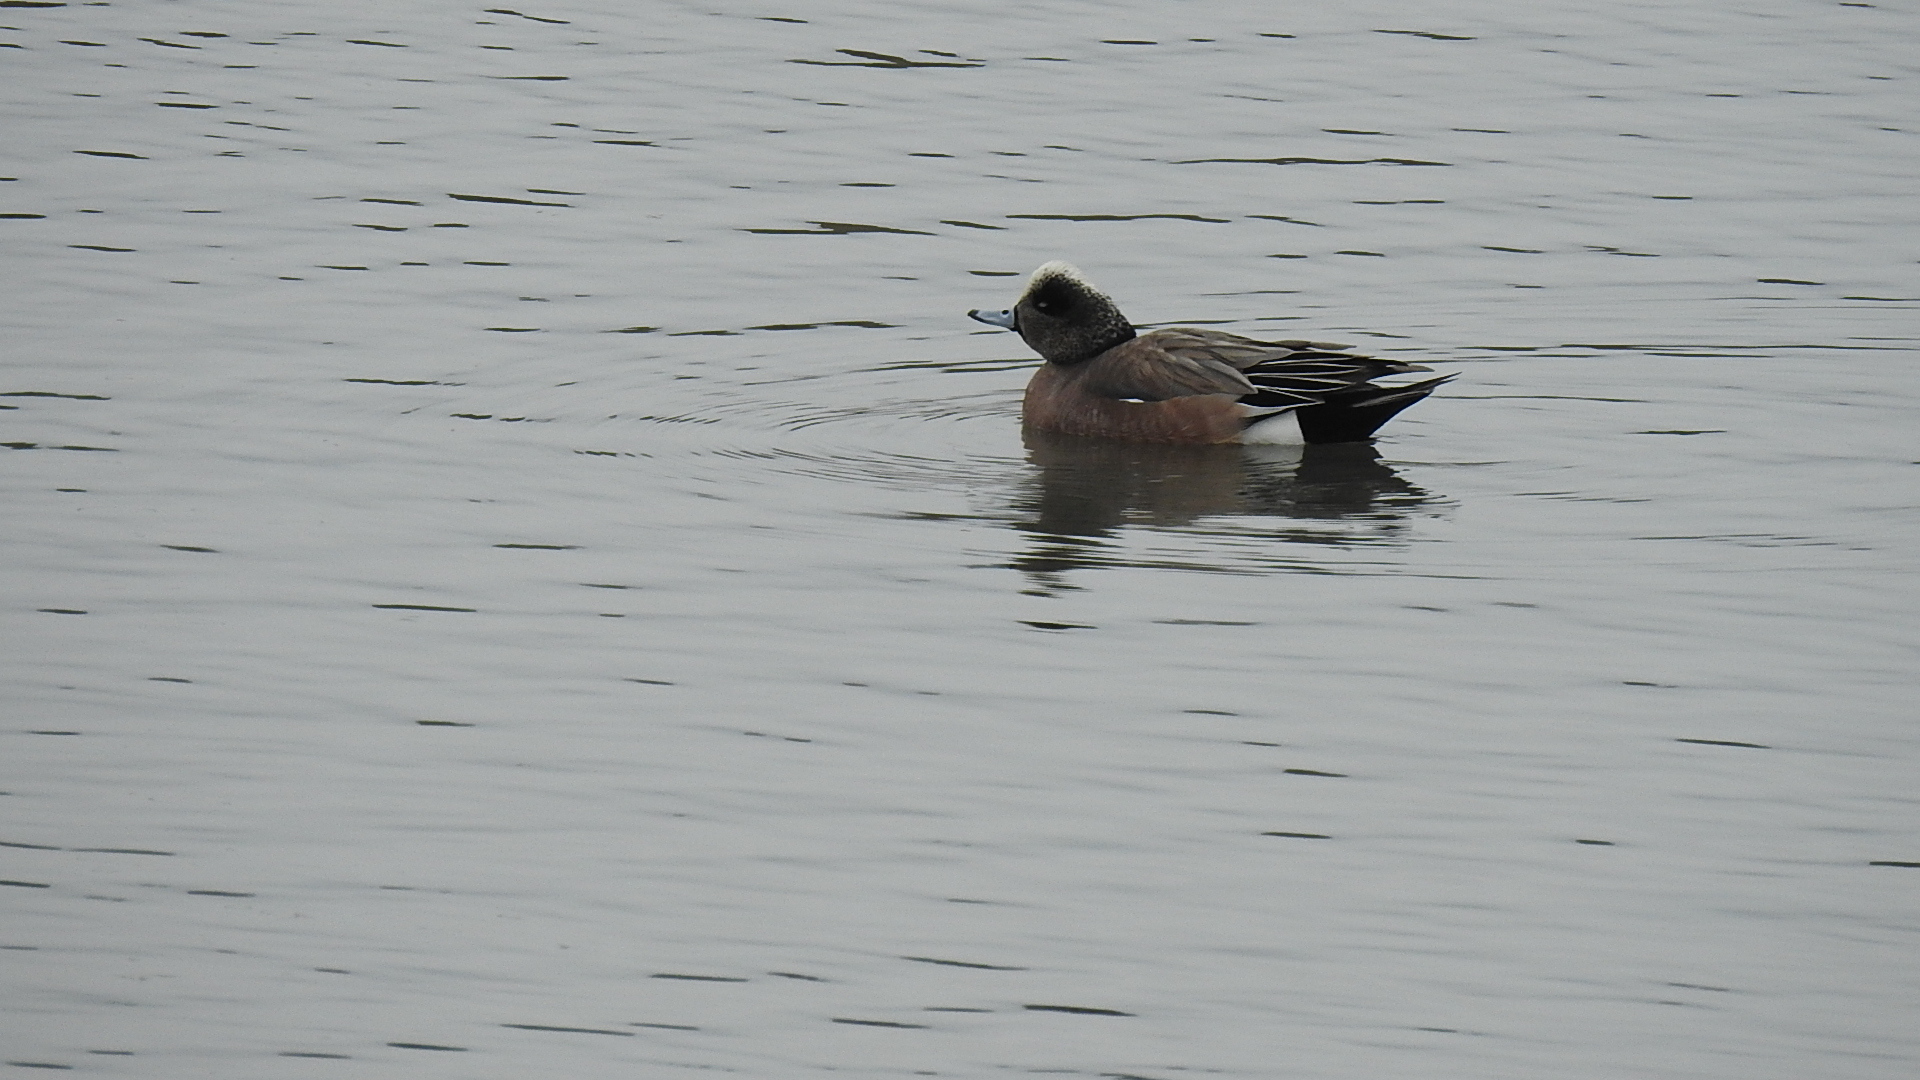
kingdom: Animalia
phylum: Chordata
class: Aves
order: Anseriformes
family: Anatidae
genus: Mareca
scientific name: Mareca americana
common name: American wigeon
